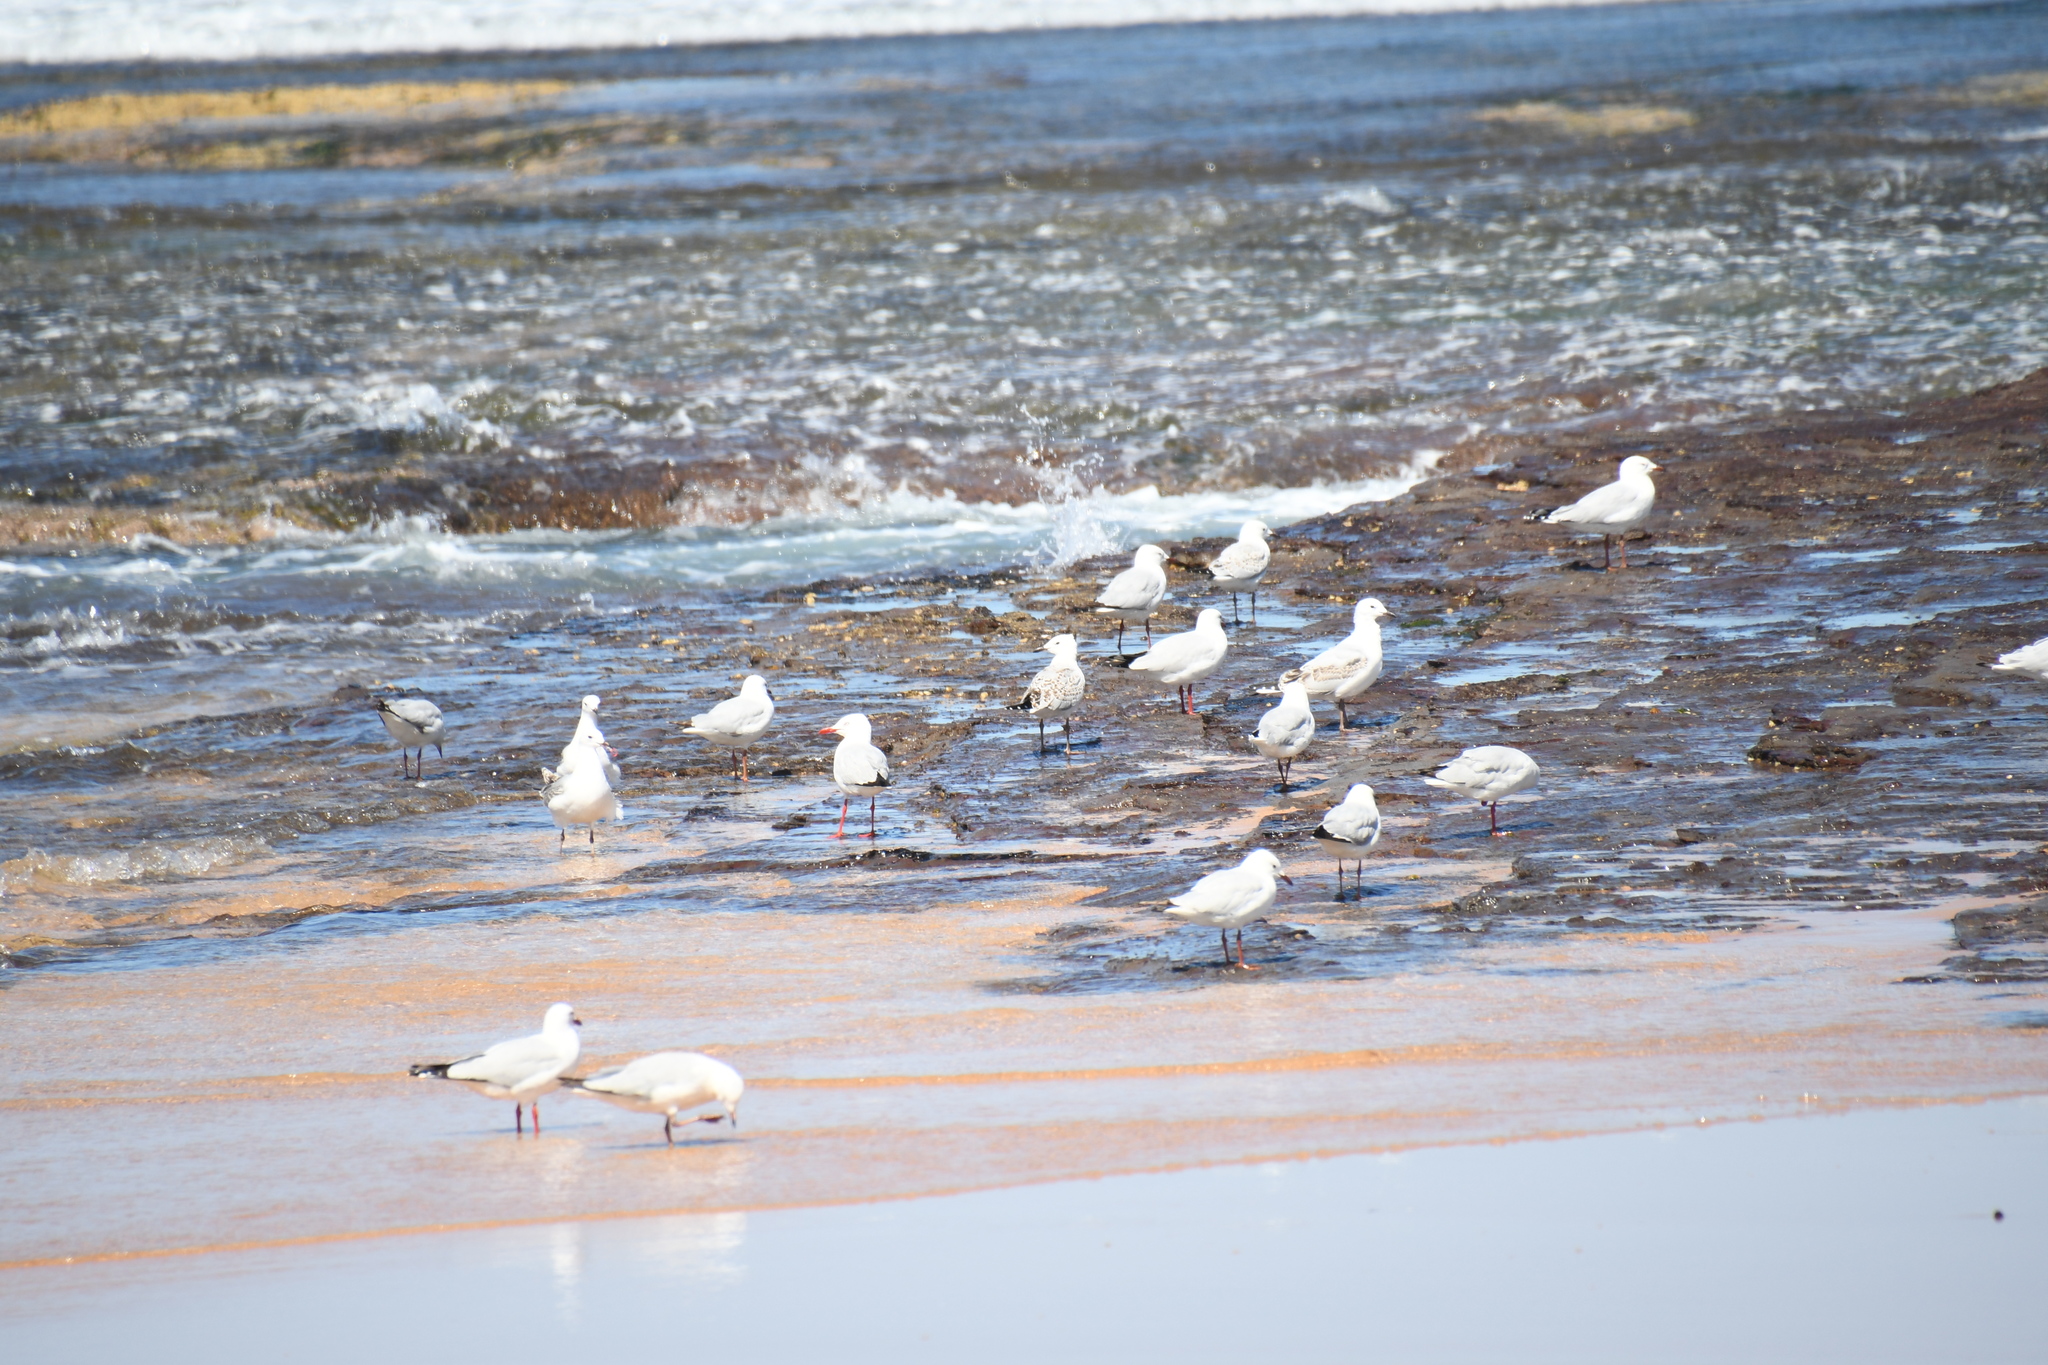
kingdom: Animalia
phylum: Chordata
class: Aves
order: Charadriiformes
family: Laridae
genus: Chroicocephalus
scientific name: Chroicocephalus novaehollandiae
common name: Silver gull
